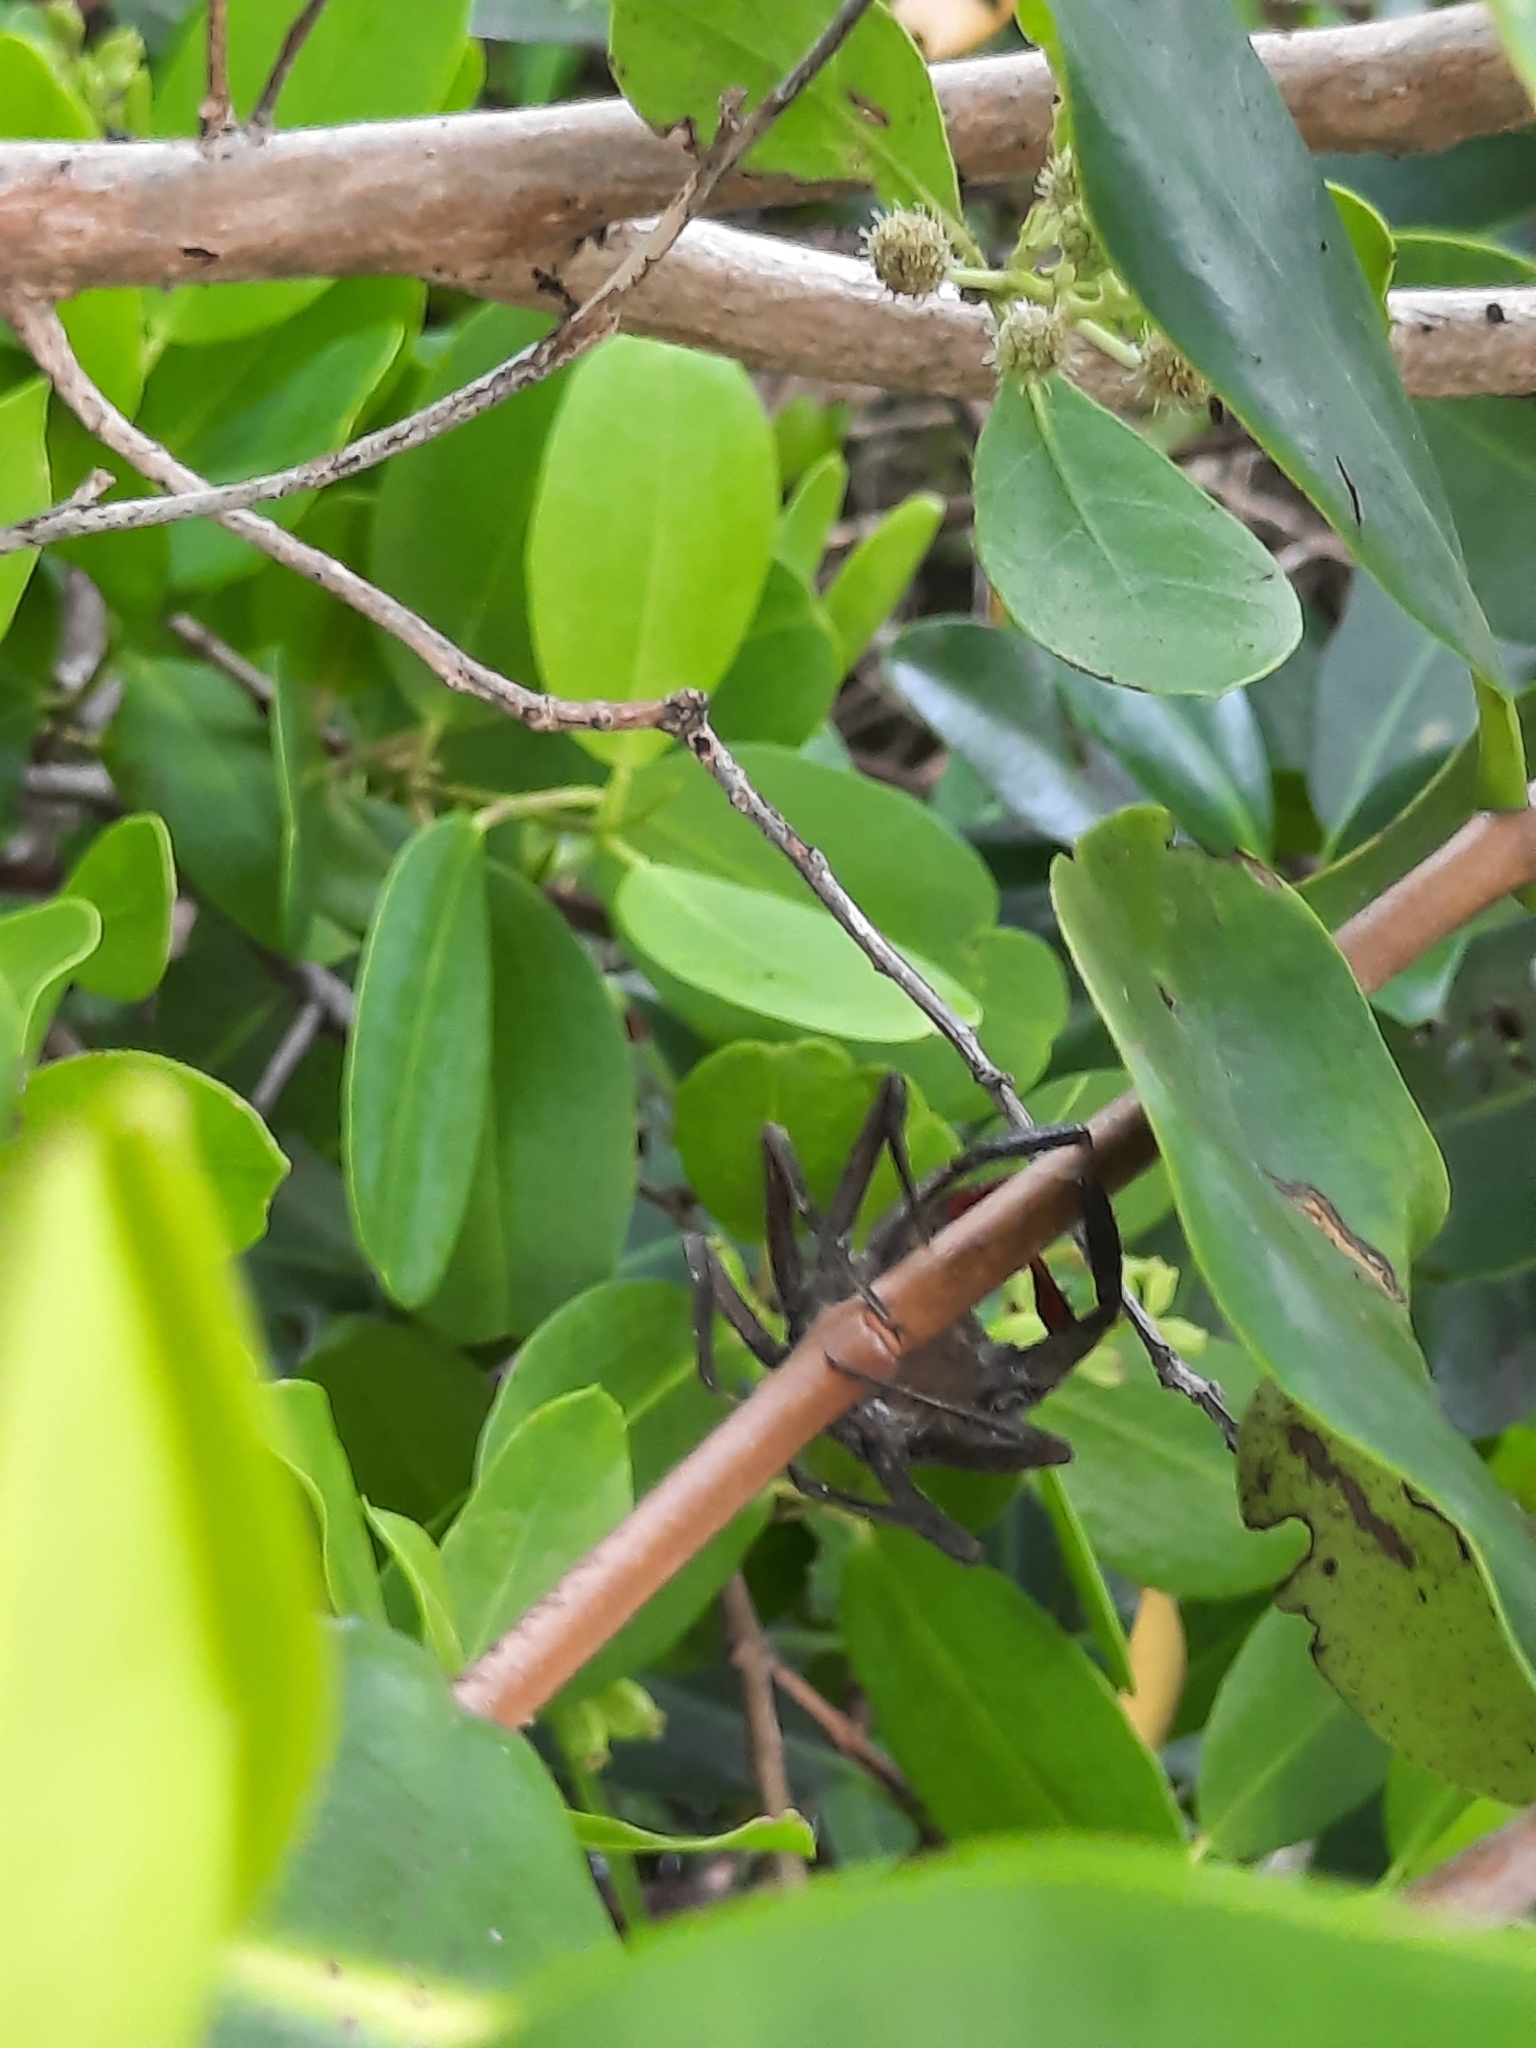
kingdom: Animalia
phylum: Arthropoda
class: Malacostraca
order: Decapoda
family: Sesarmidae
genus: Aratus
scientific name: Aratus pisonii
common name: Mangrove crab
